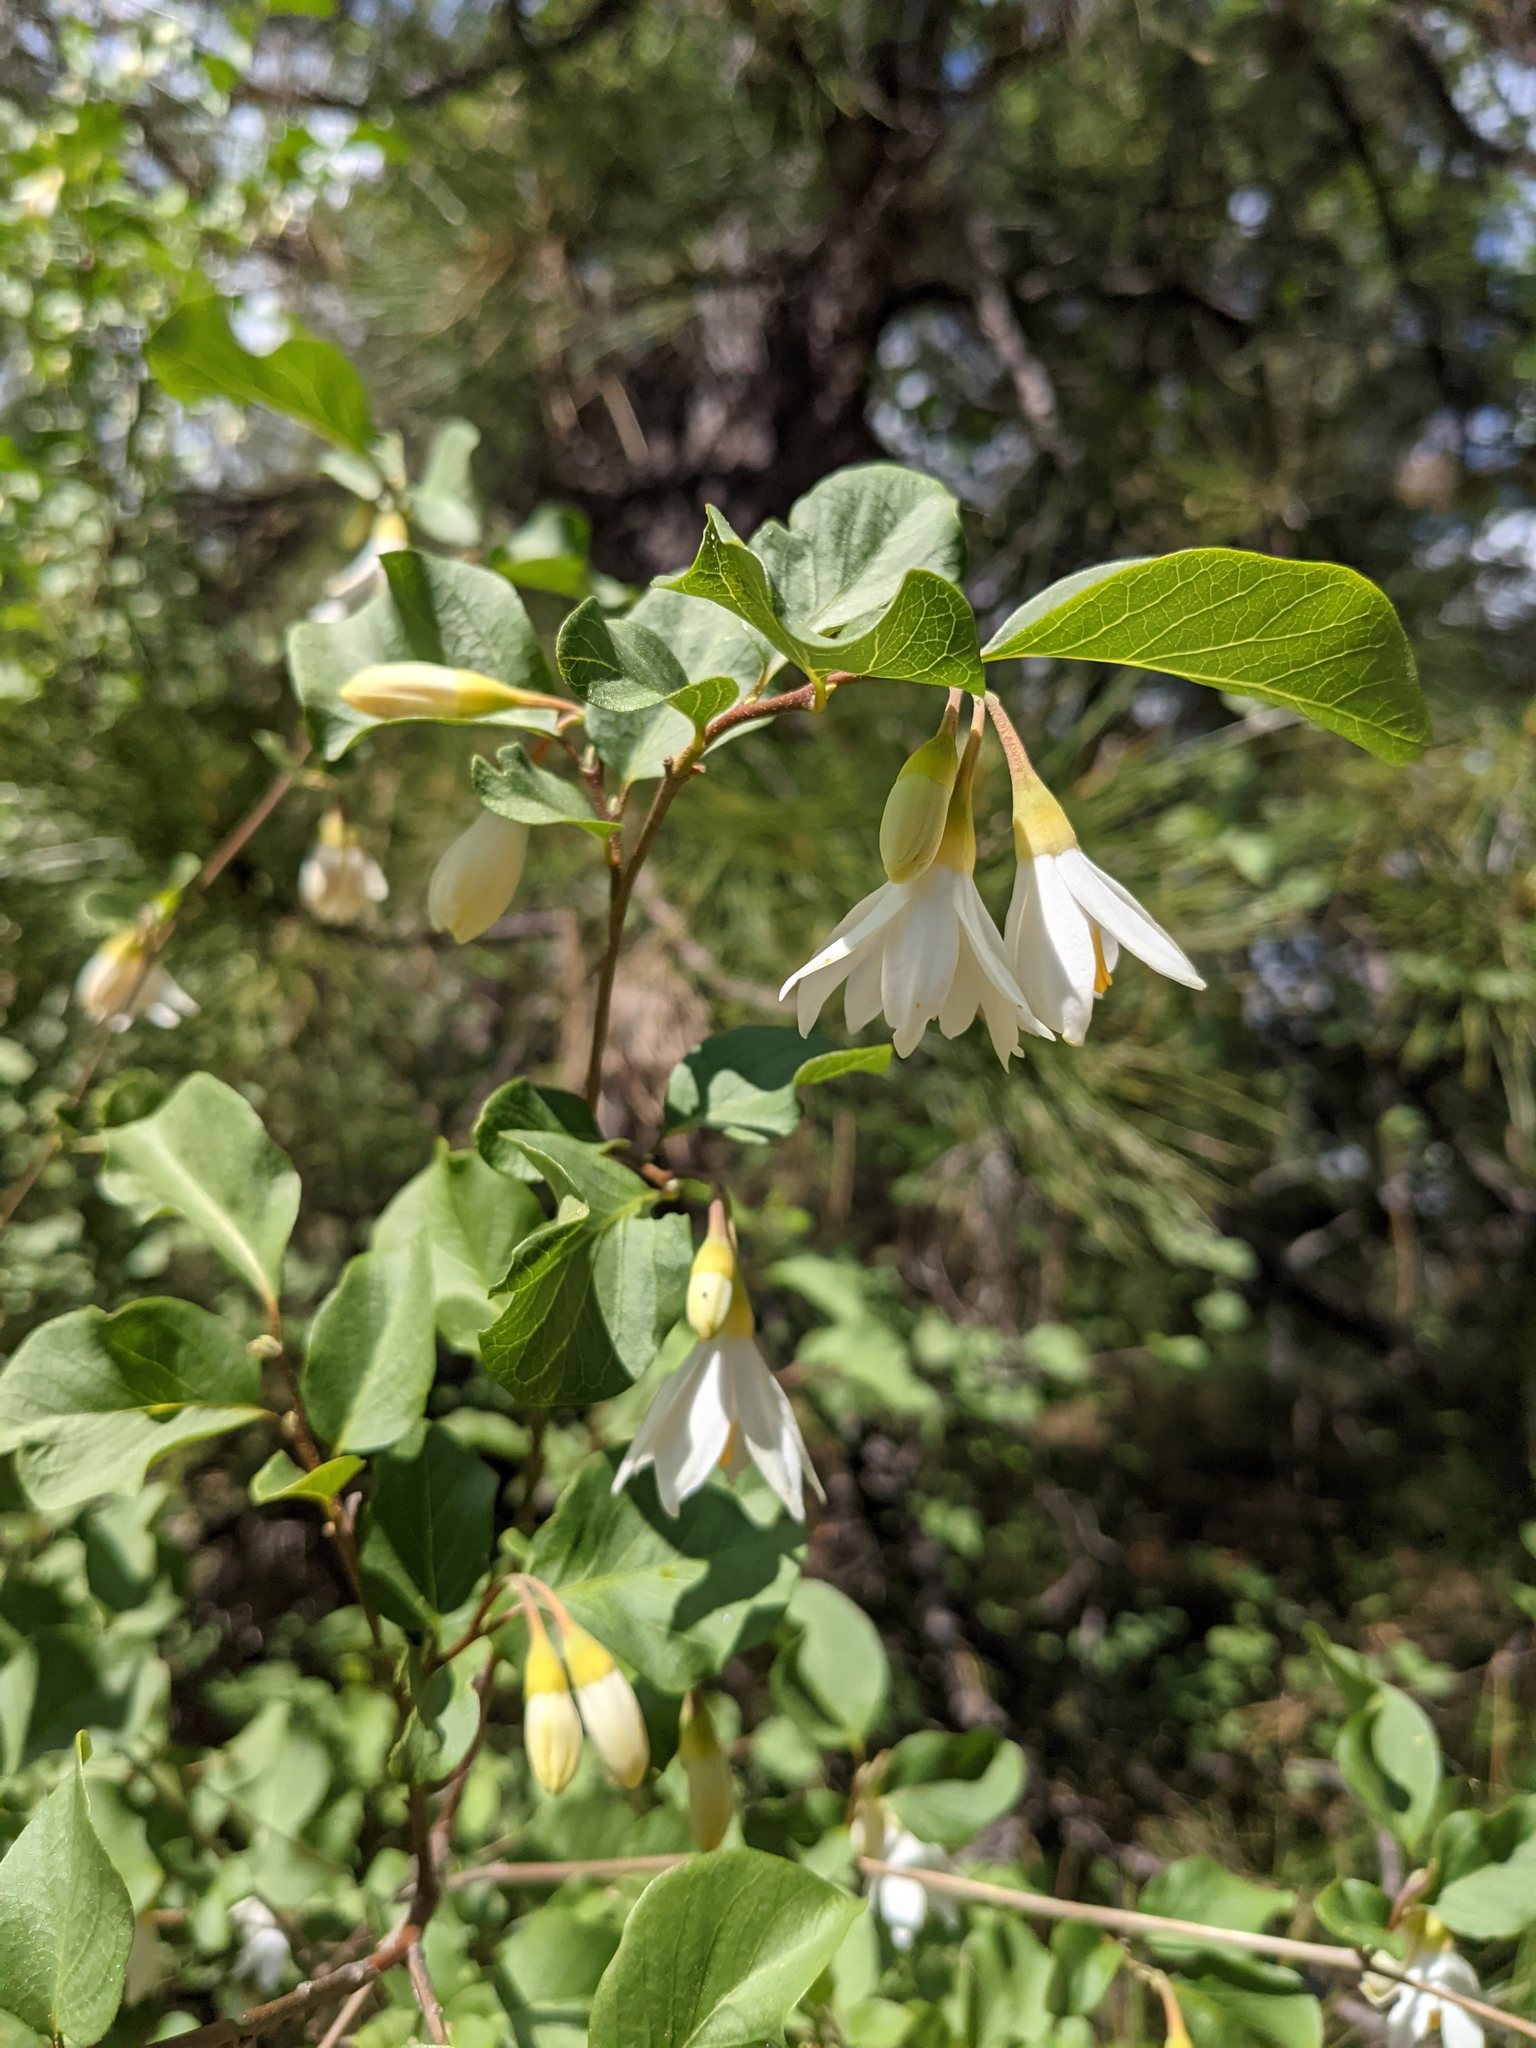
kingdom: Plantae
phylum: Tracheophyta
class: Magnoliopsida
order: Ericales
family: Styracaceae
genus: Styrax
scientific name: Styrax redivivus
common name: California styrax
